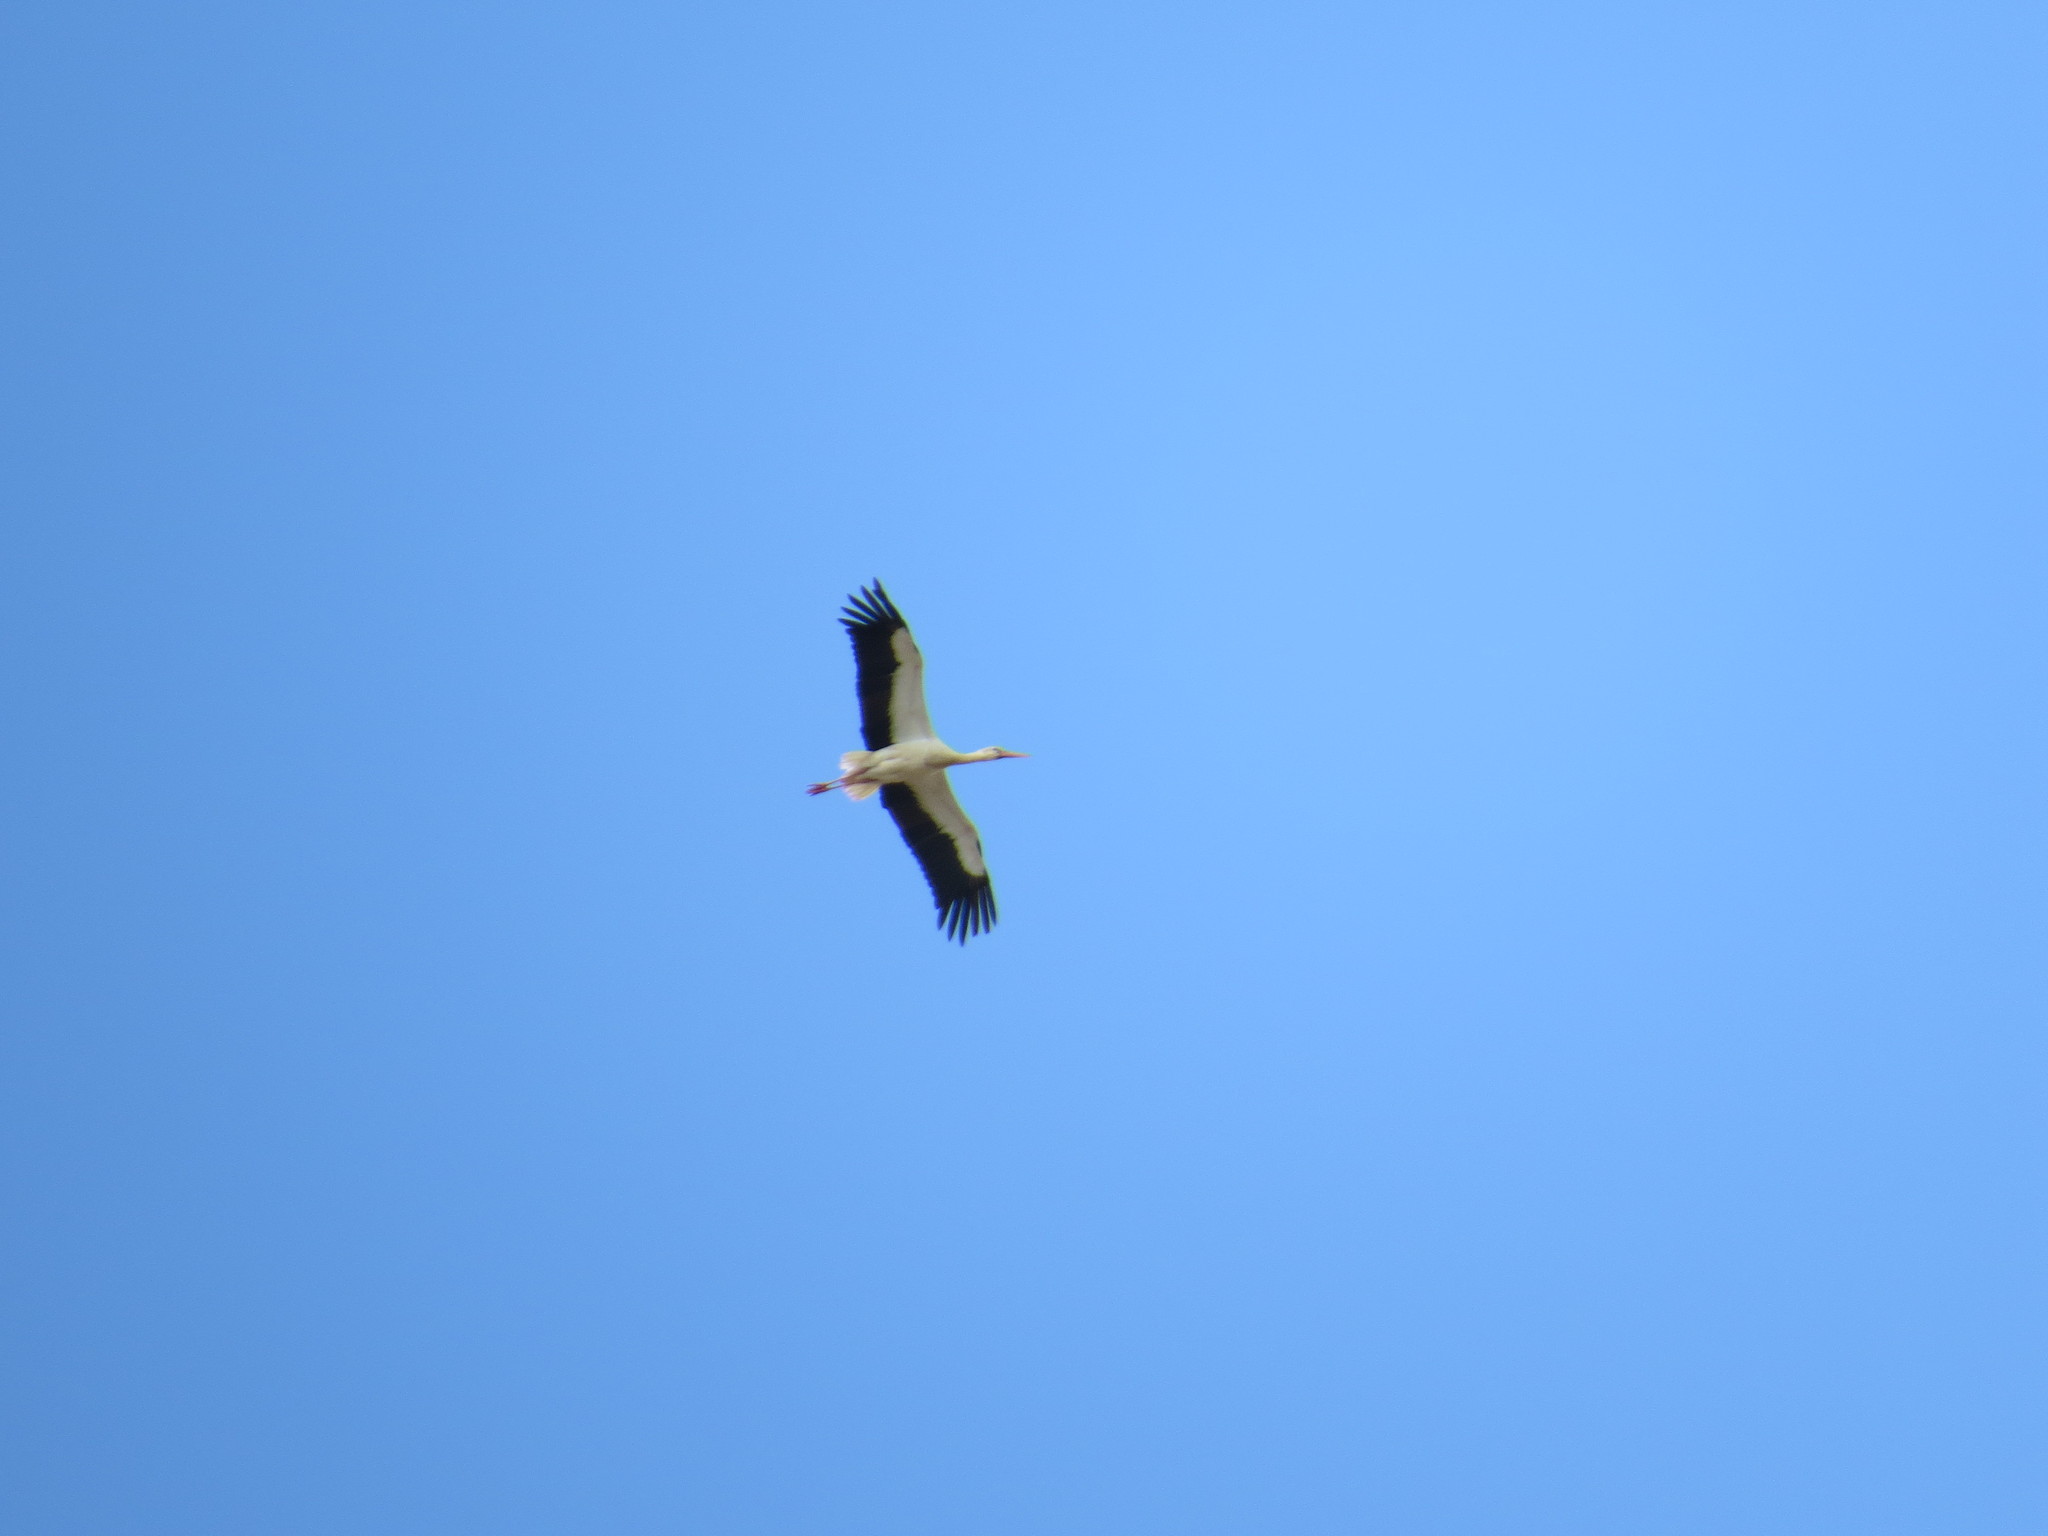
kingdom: Animalia
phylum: Chordata
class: Aves
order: Ciconiiformes
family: Ciconiidae
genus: Ciconia
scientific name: Ciconia ciconia
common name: White stork
